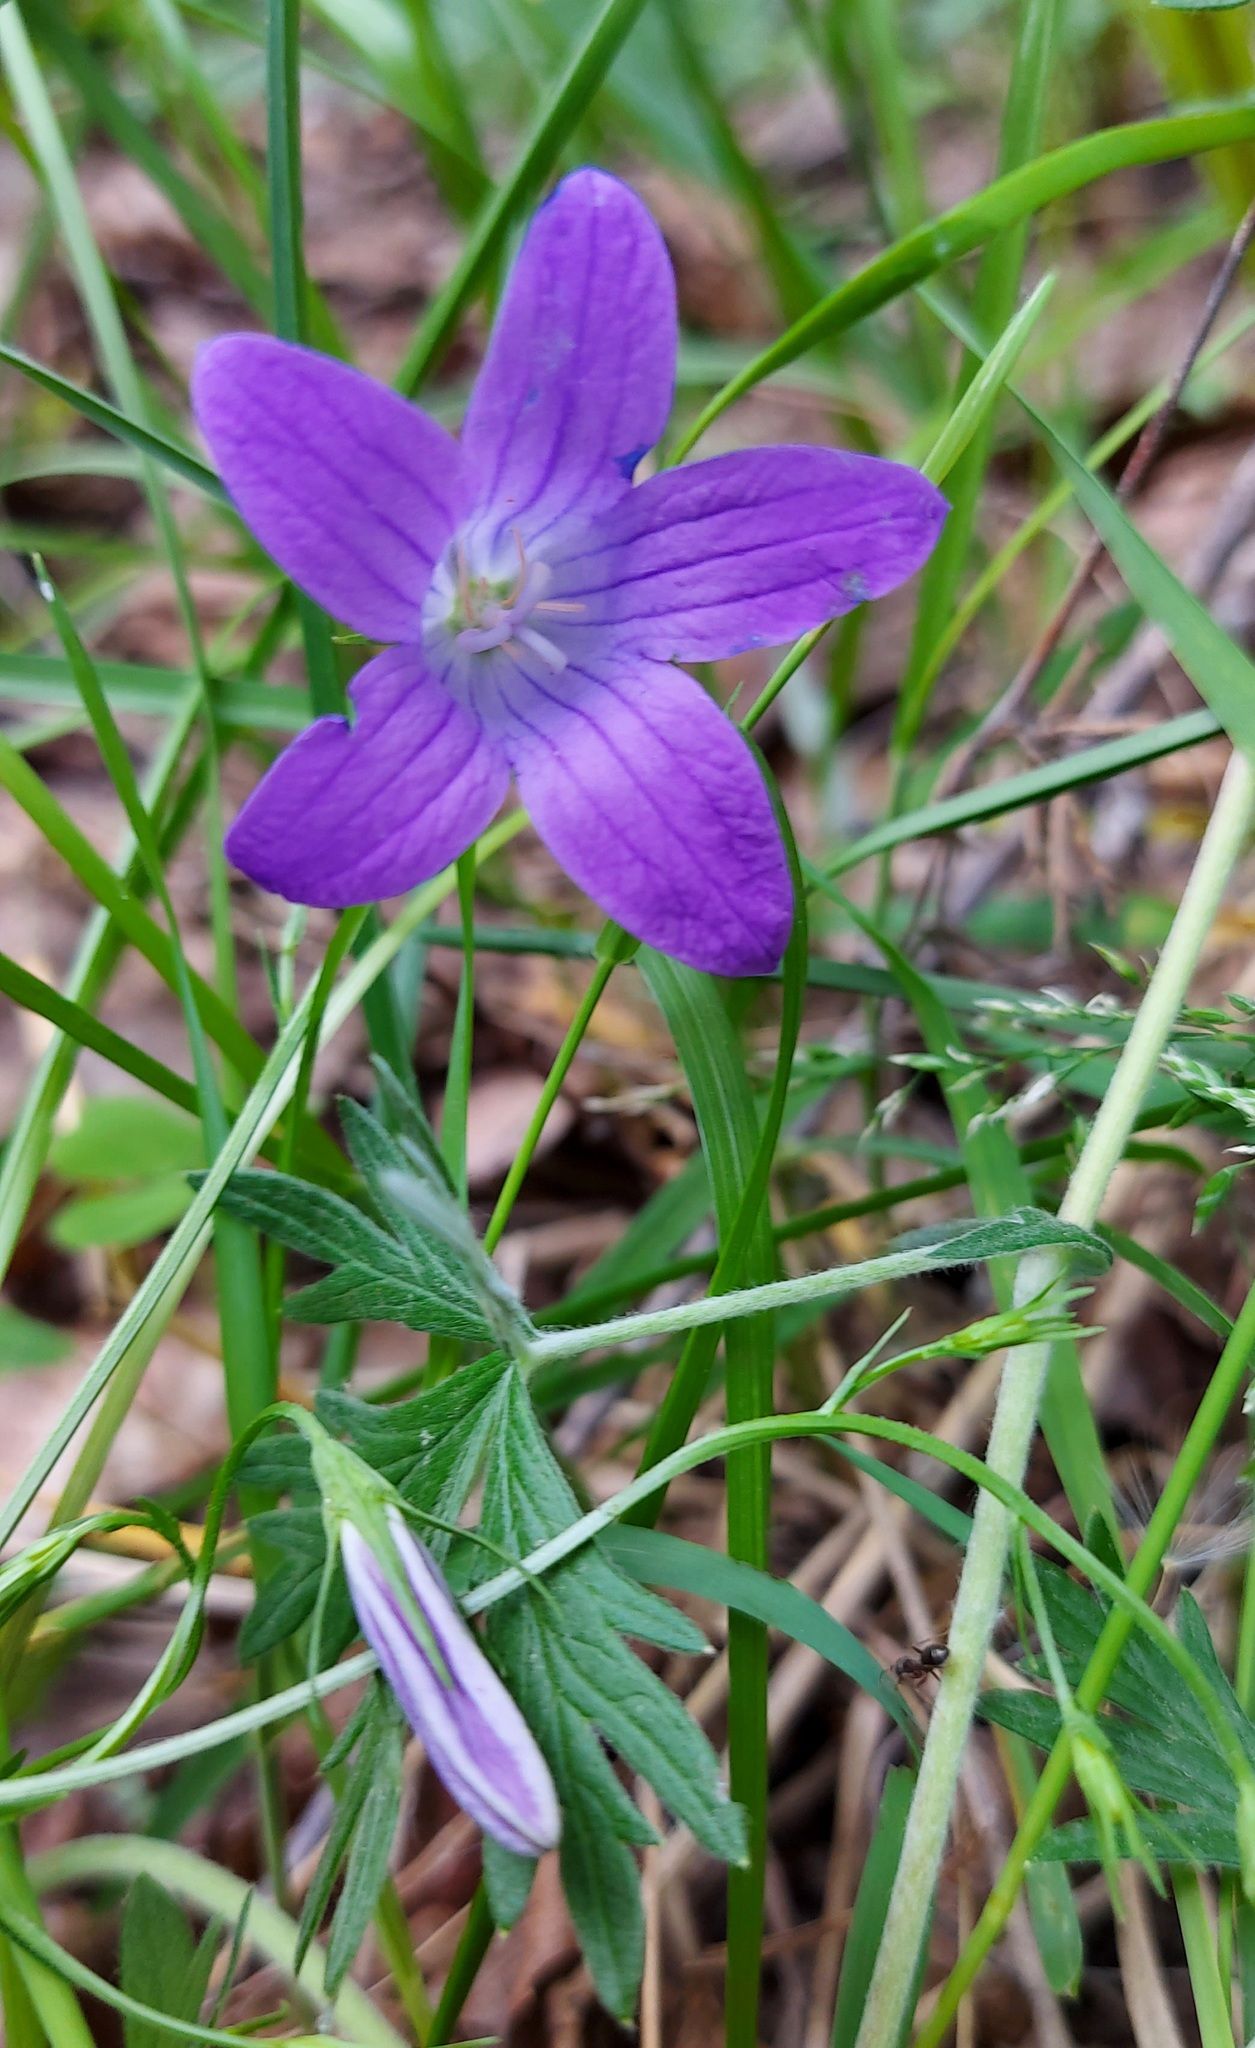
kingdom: Plantae
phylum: Tracheophyta
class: Magnoliopsida
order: Asterales
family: Campanulaceae
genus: Campanula
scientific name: Campanula patula
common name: Spreading bellflower
